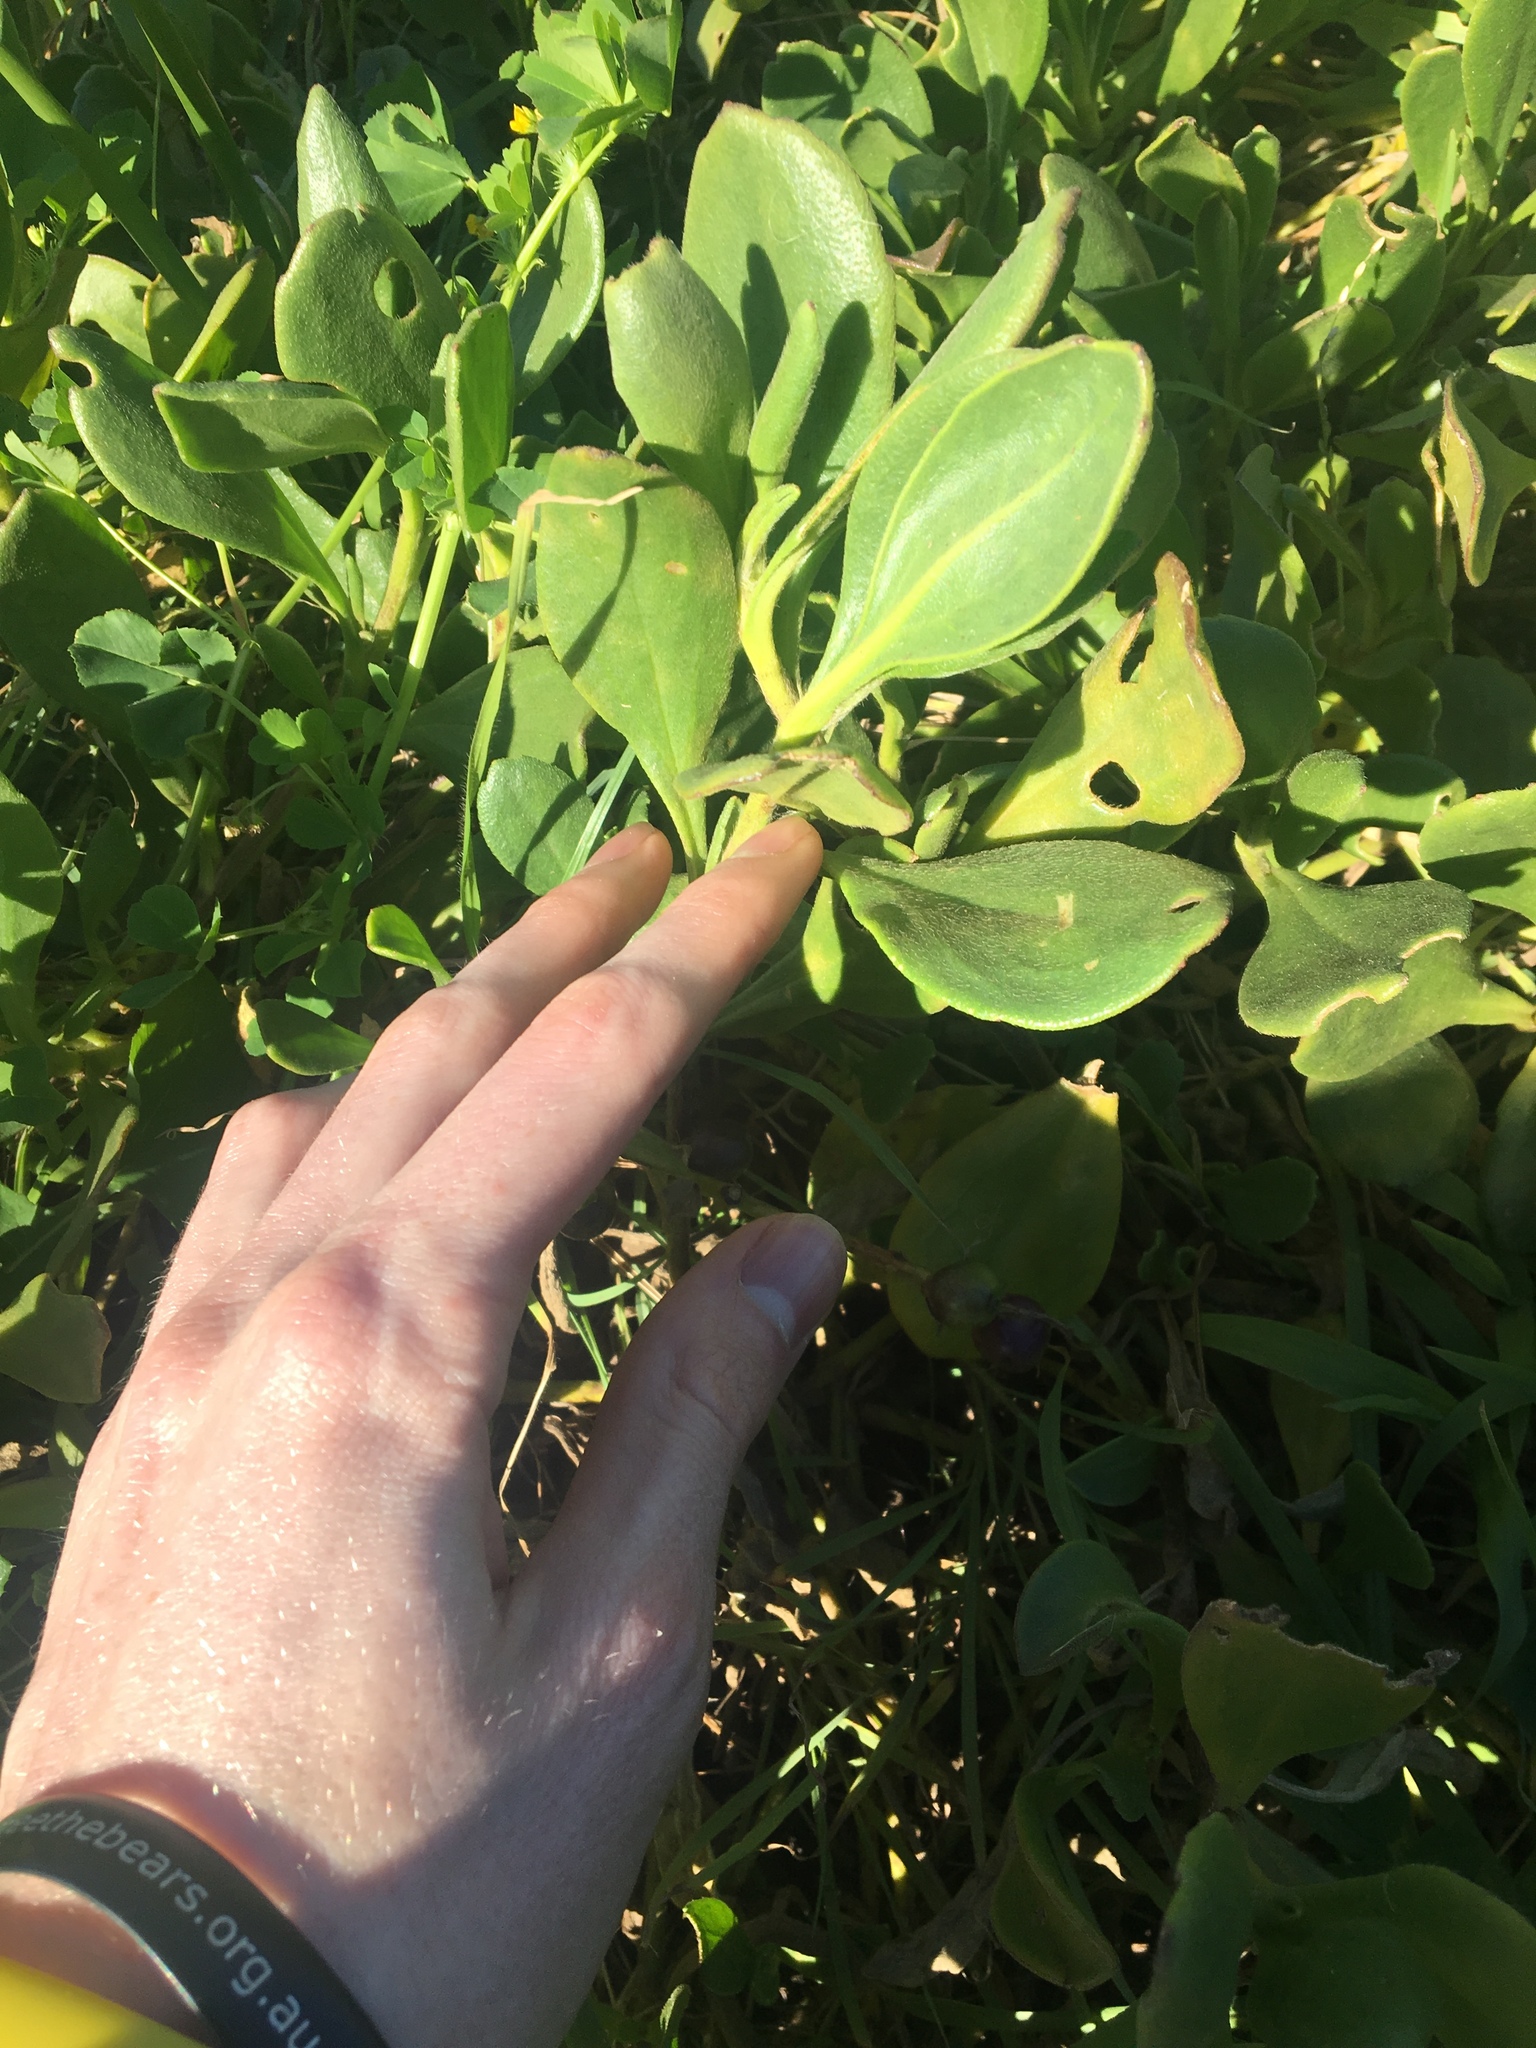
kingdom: Plantae
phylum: Tracheophyta
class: Magnoliopsida
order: Asterales
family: Goodeniaceae
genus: Scaevola
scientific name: Scaevola calendulacea
